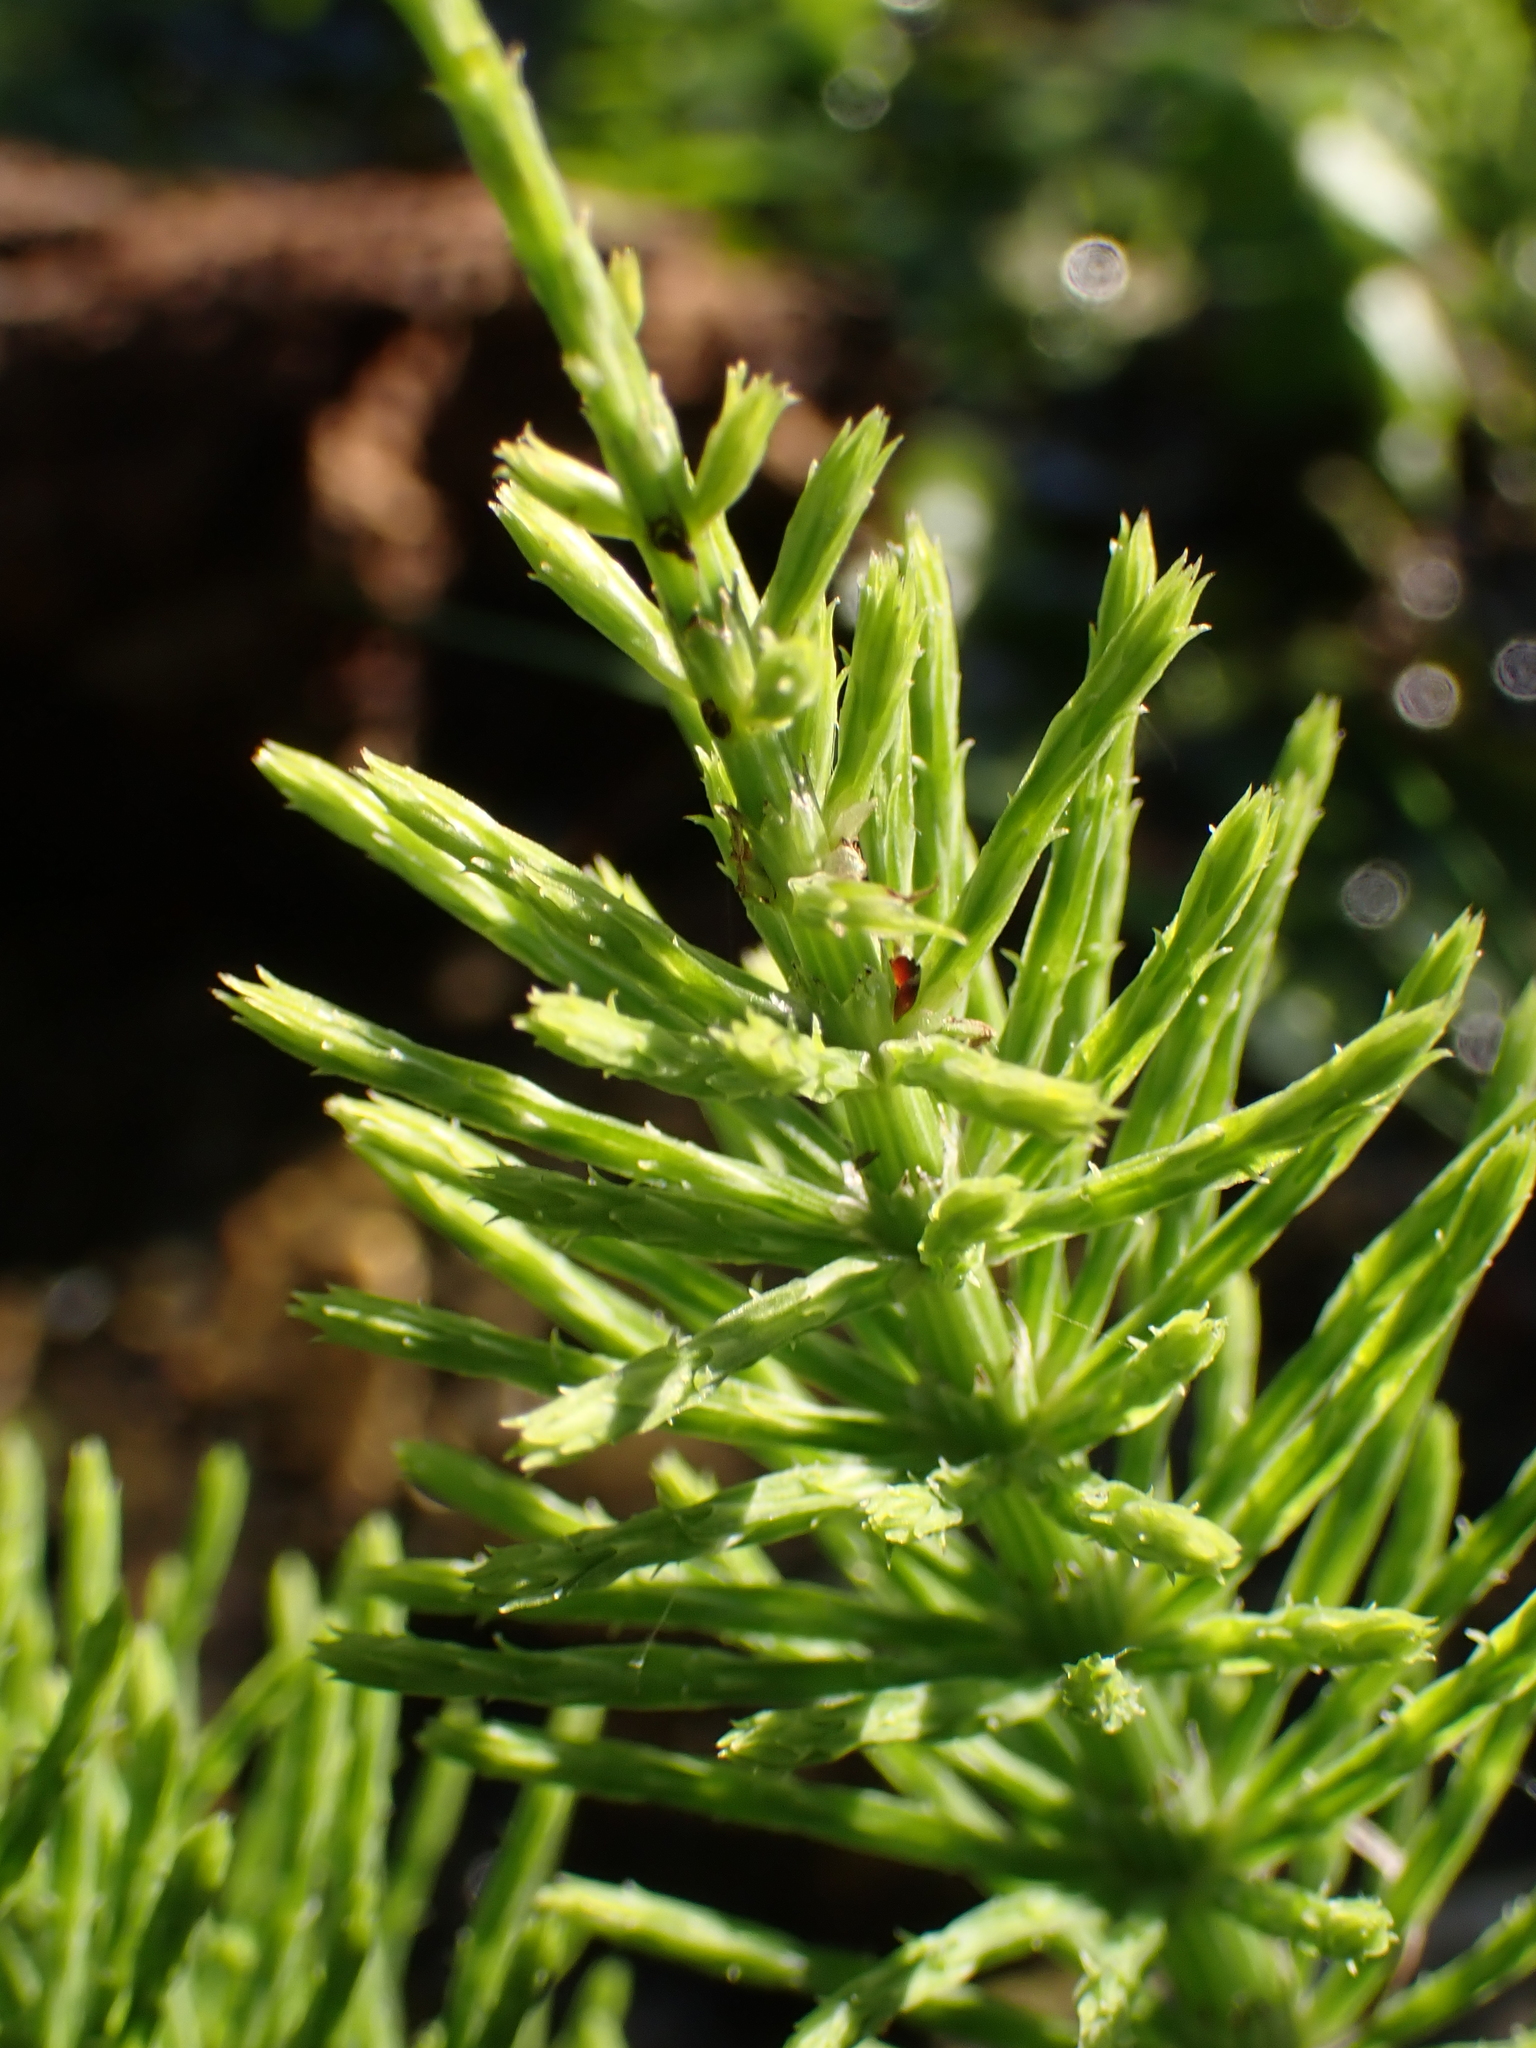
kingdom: Plantae
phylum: Tracheophyta
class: Polypodiopsida
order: Equisetales
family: Equisetaceae
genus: Equisetum
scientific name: Equisetum arvense
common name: Field horsetail
